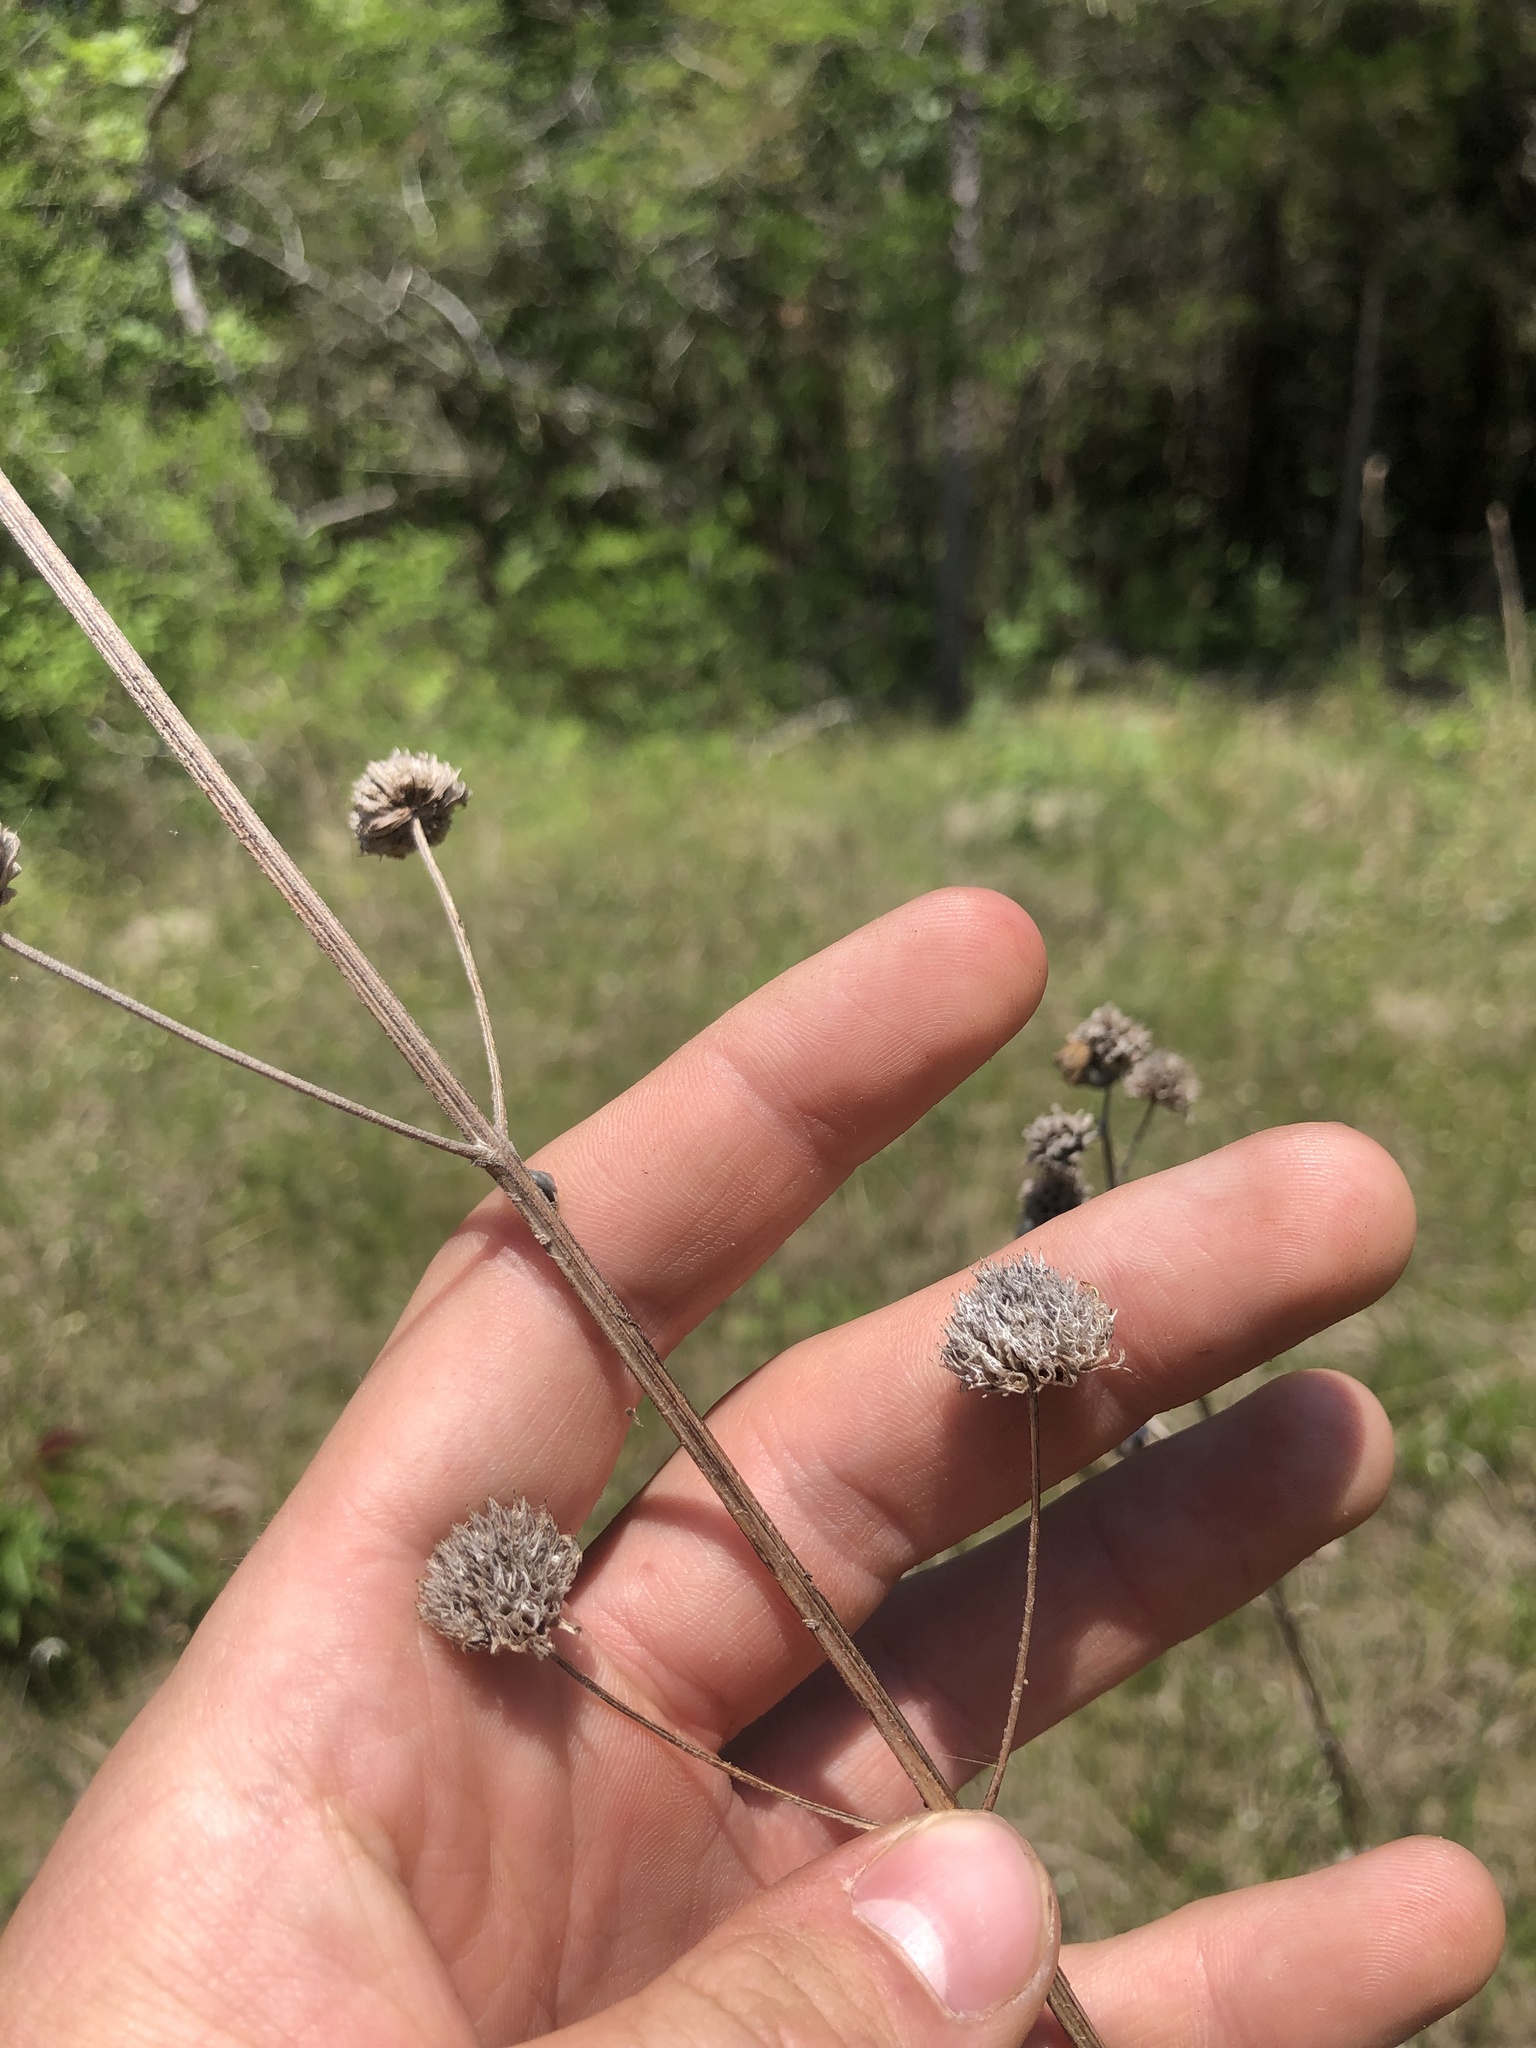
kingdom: Plantae
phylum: Tracheophyta
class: Magnoliopsida
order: Lamiales
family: Lamiaceae
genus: Hyptis
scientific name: Hyptis alata
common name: Cluster bush-mint
